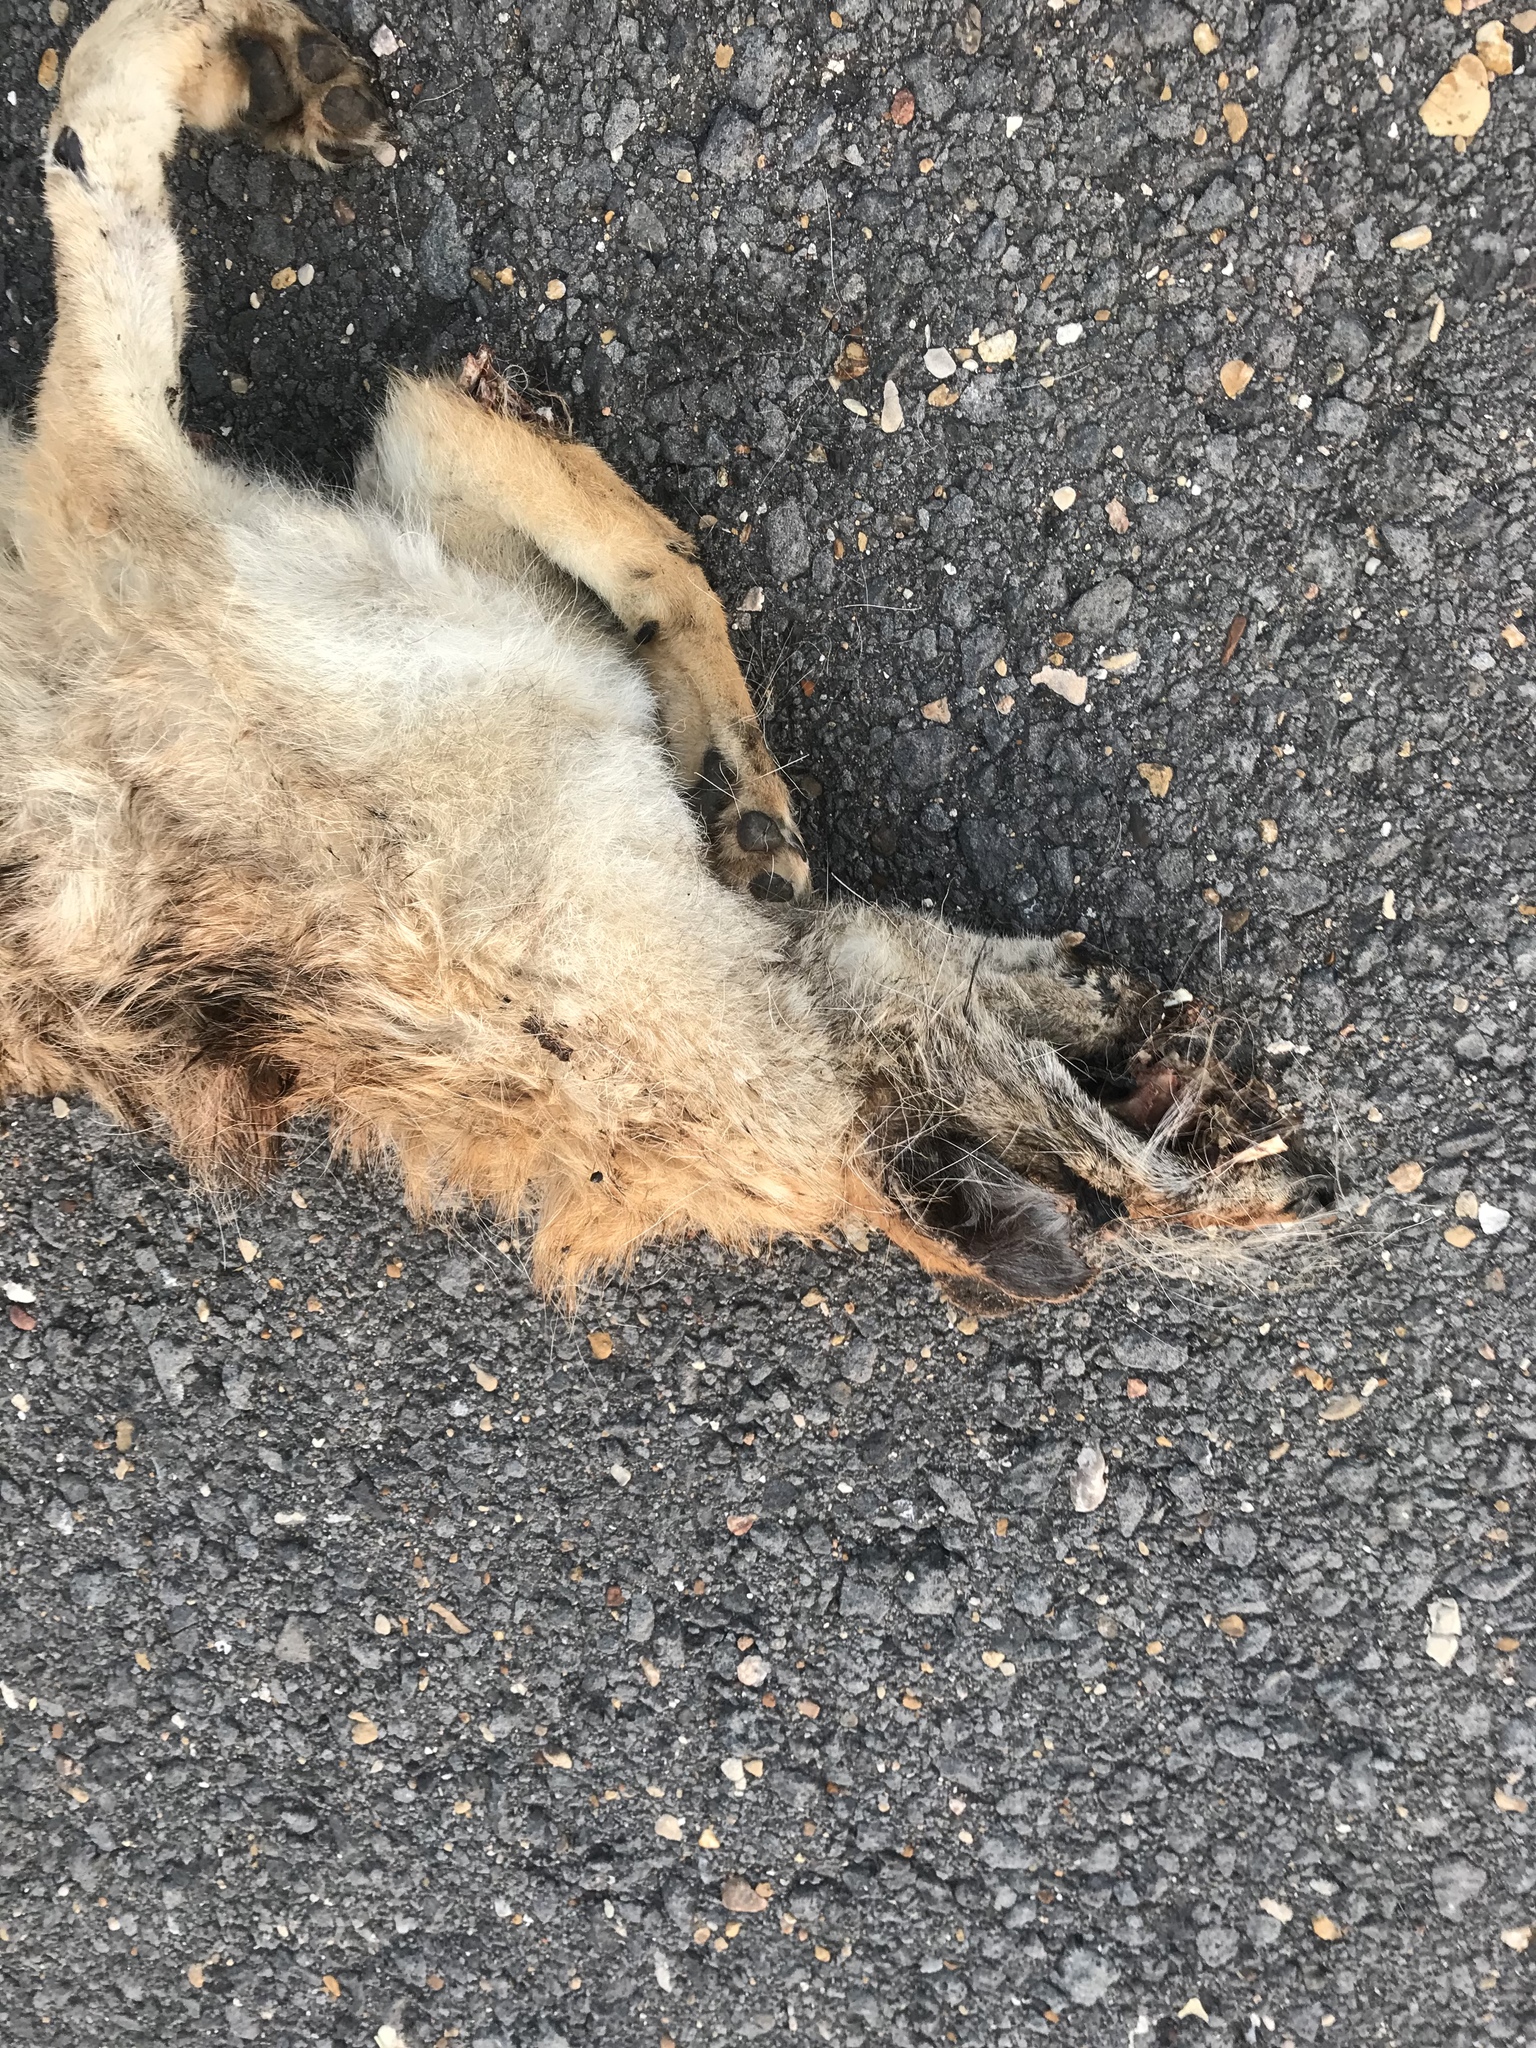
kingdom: Animalia
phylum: Chordata
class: Mammalia
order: Carnivora
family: Canidae
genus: Canis
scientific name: Canis latrans
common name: Coyote
